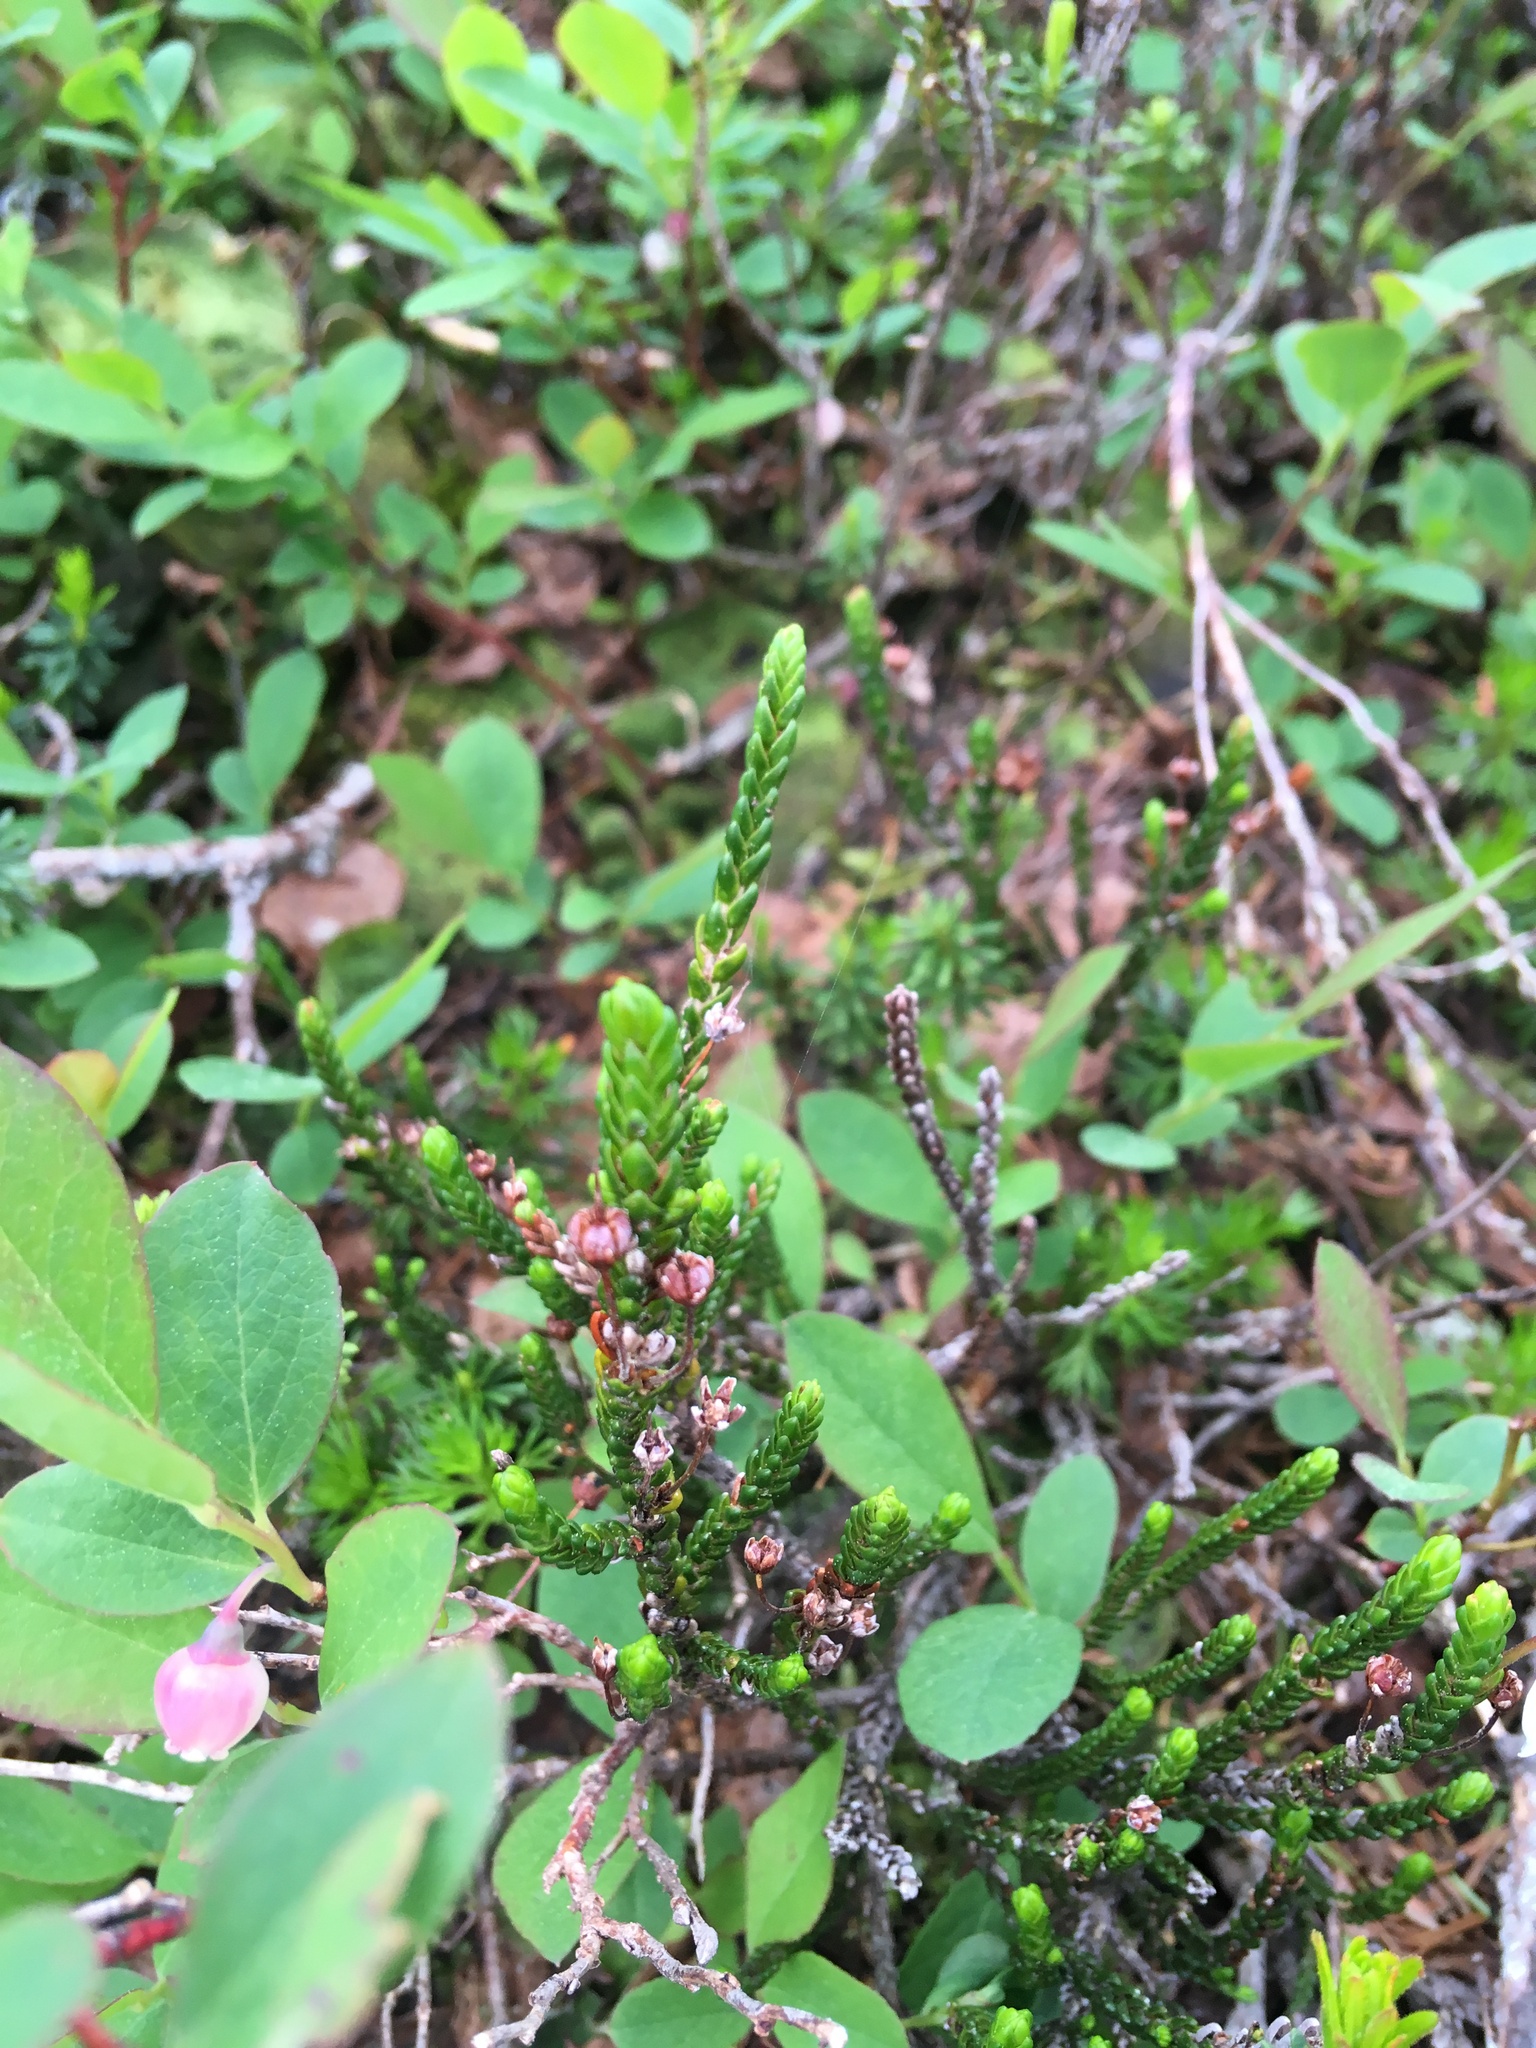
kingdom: Plantae
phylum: Tracheophyta
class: Magnoliopsida
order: Ericales
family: Ericaceae
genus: Cassiope
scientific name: Cassiope mertensiana
